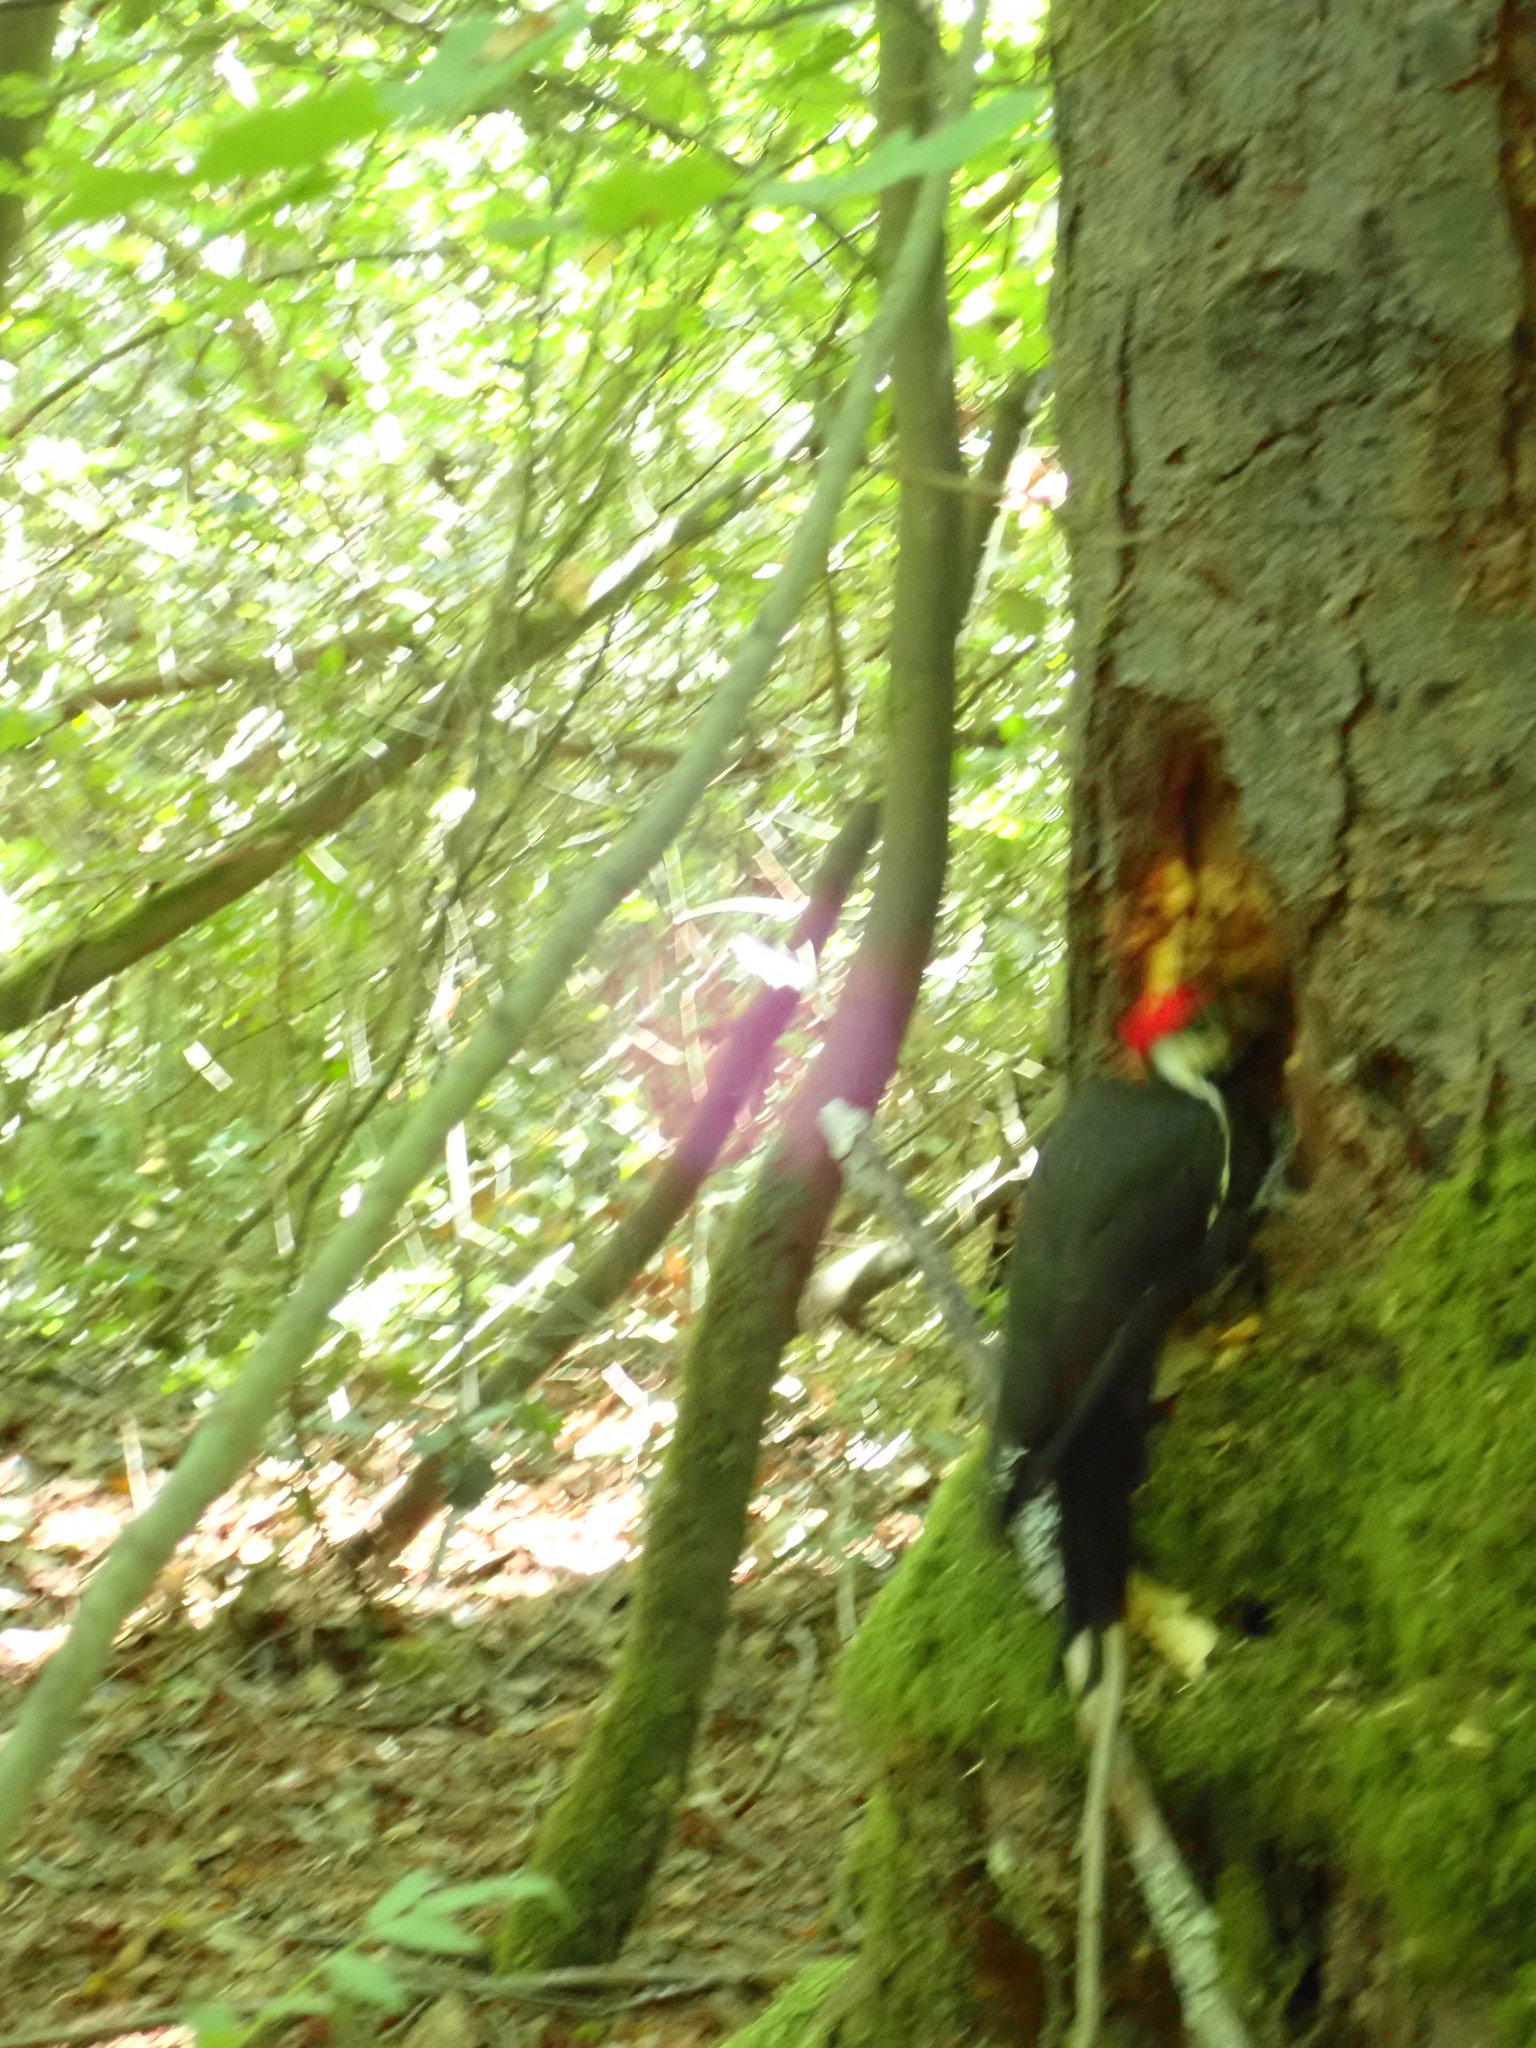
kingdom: Animalia
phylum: Chordata
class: Aves
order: Piciformes
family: Picidae
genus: Dryocopus
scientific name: Dryocopus pileatus
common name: Pileated woodpecker
